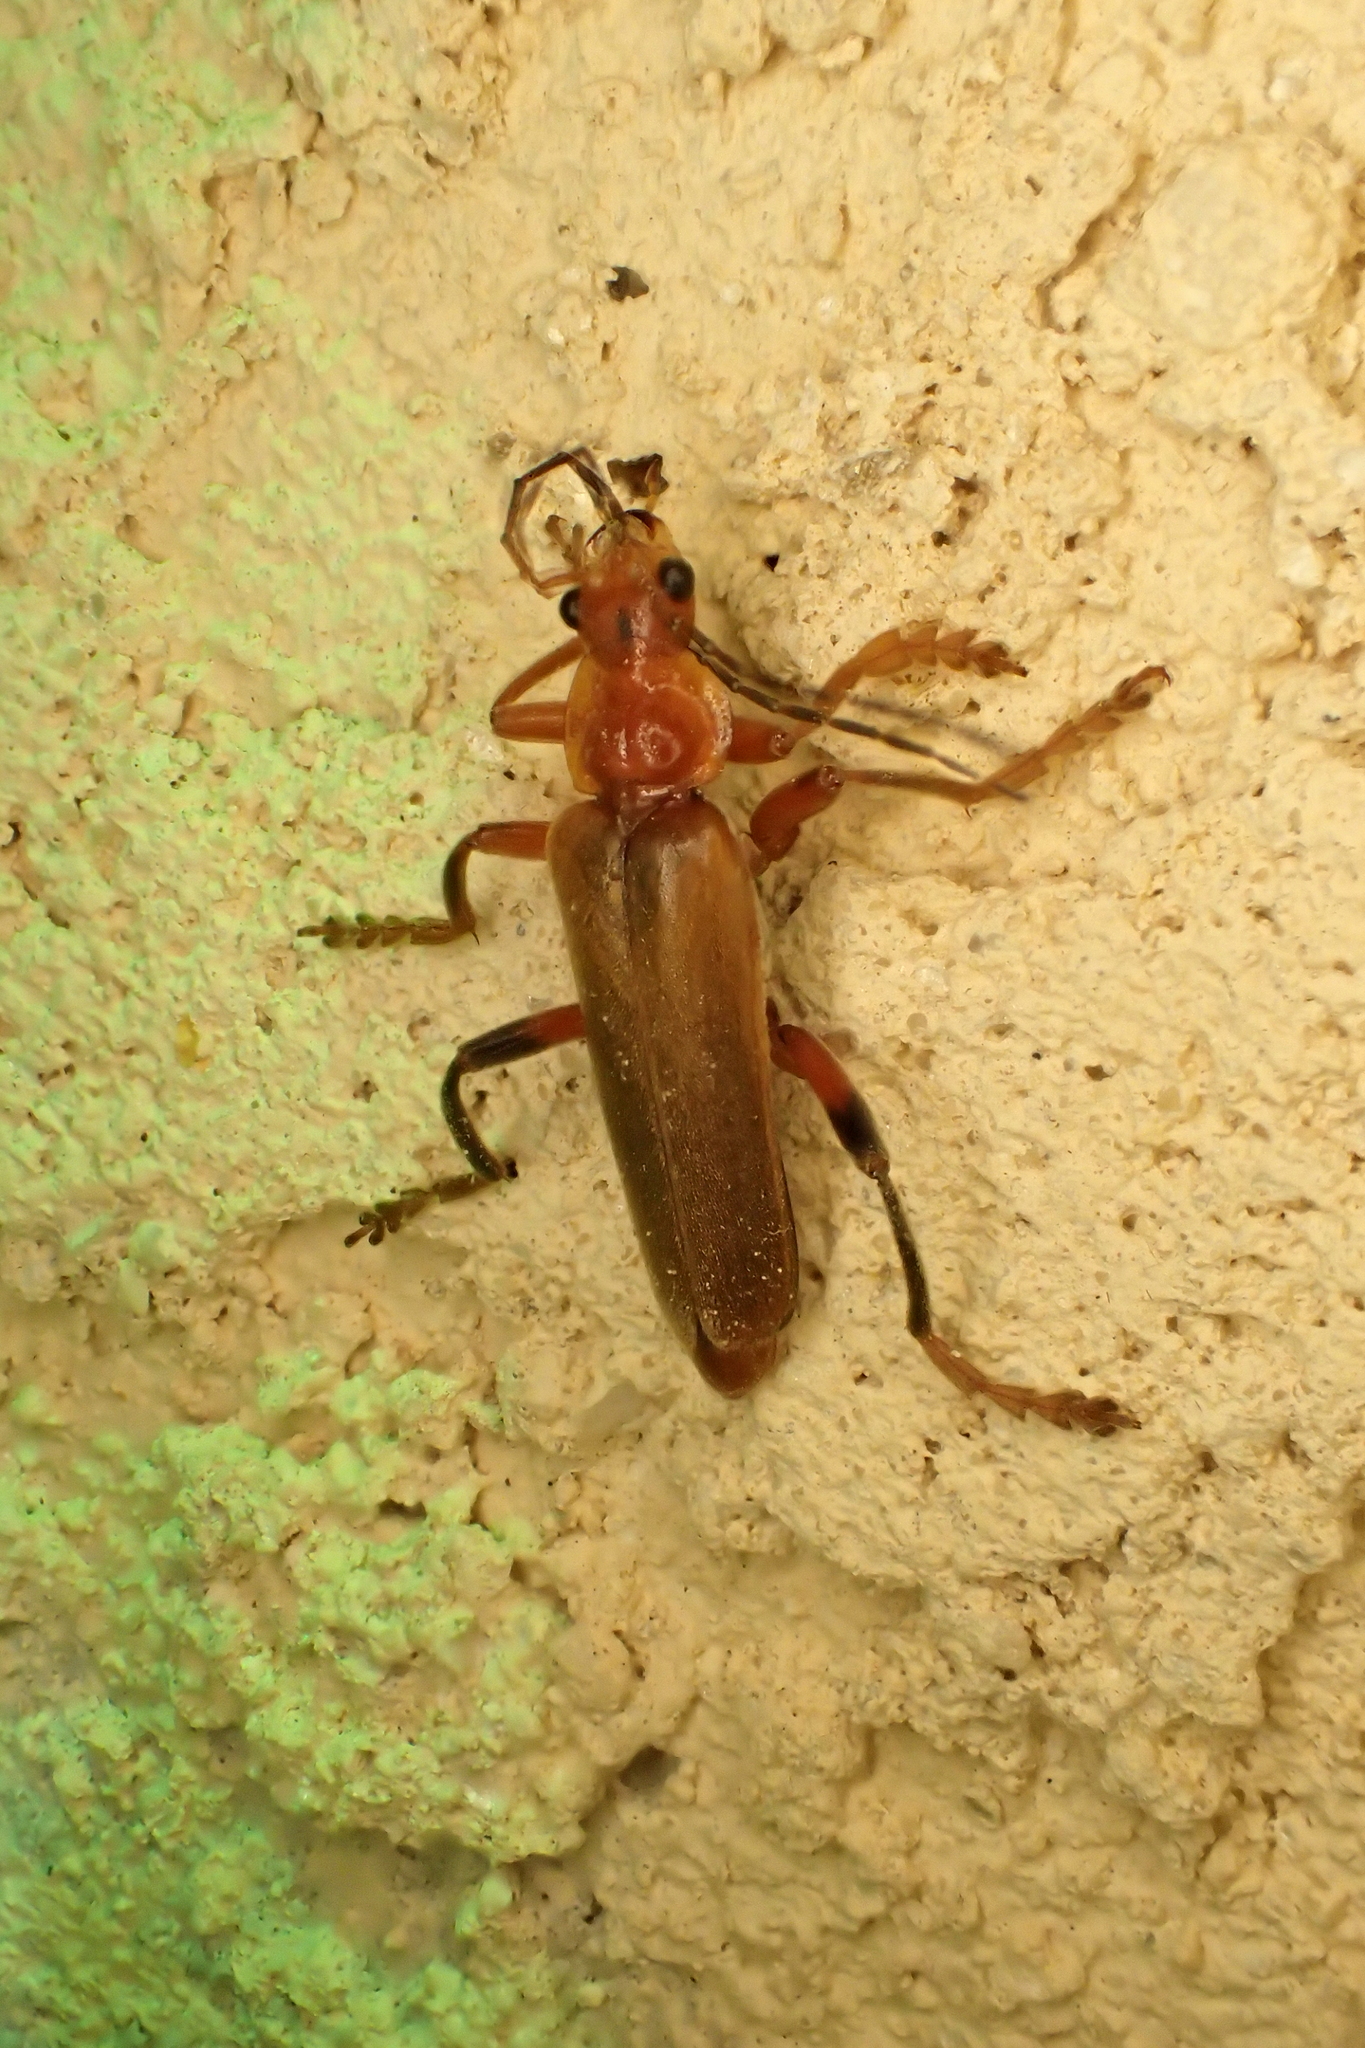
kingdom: Animalia
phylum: Arthropoda
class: Insecta
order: Coleoptera
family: Cantharidae
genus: Cantharis
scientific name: Cantharis livida
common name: Livid soldier beetle
